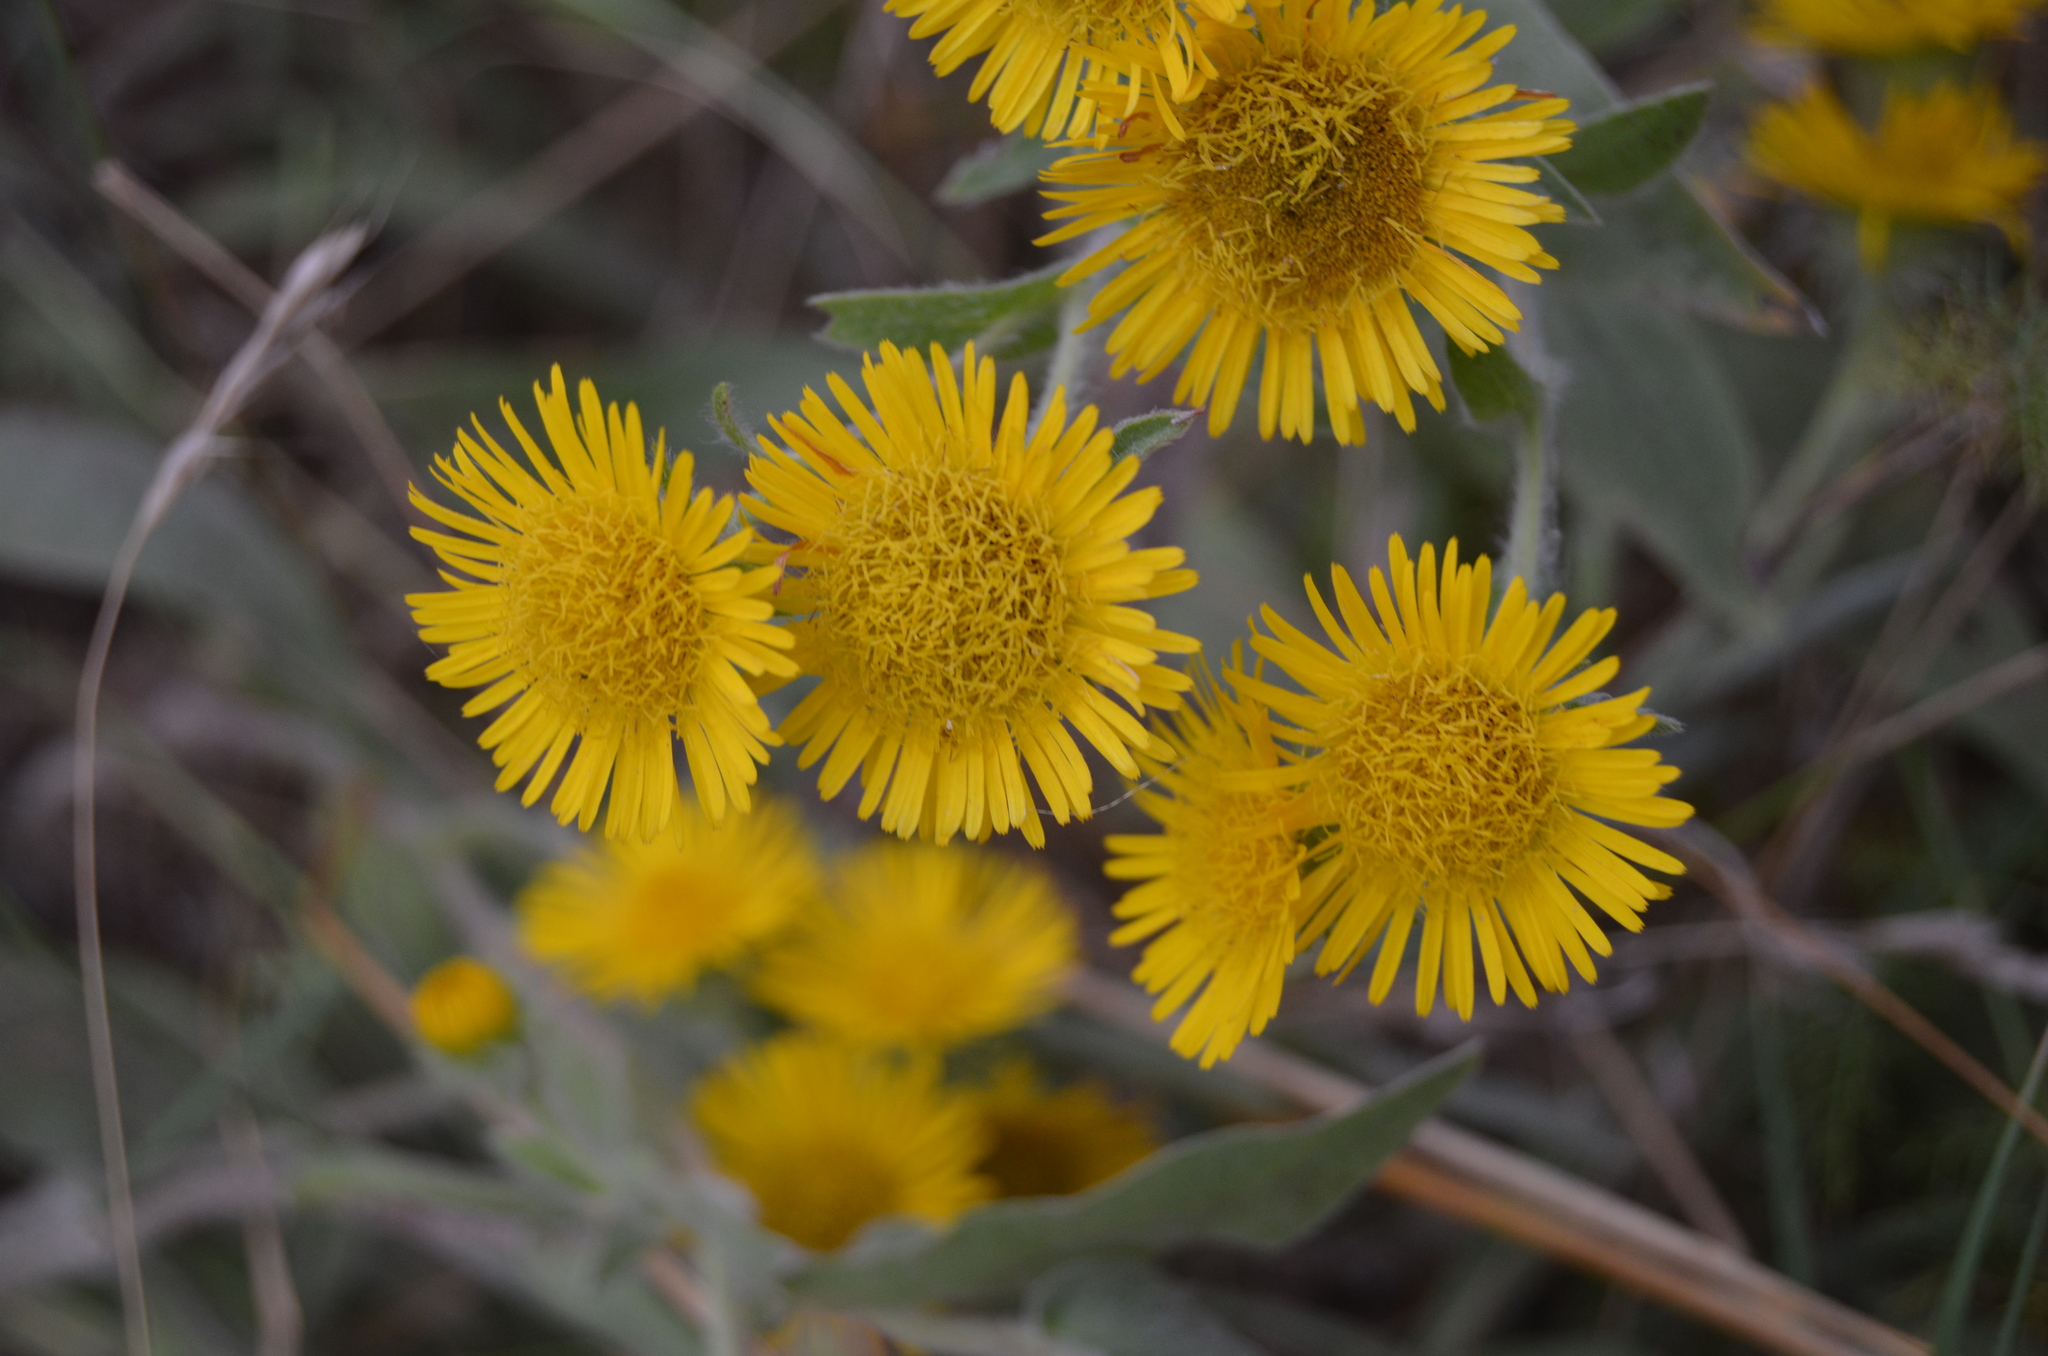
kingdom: Plantae
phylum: Tracheophyta
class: Magnoliopsida
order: Asterales
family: Asteraceae
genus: Pentanema
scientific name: Pentanema helenioides
